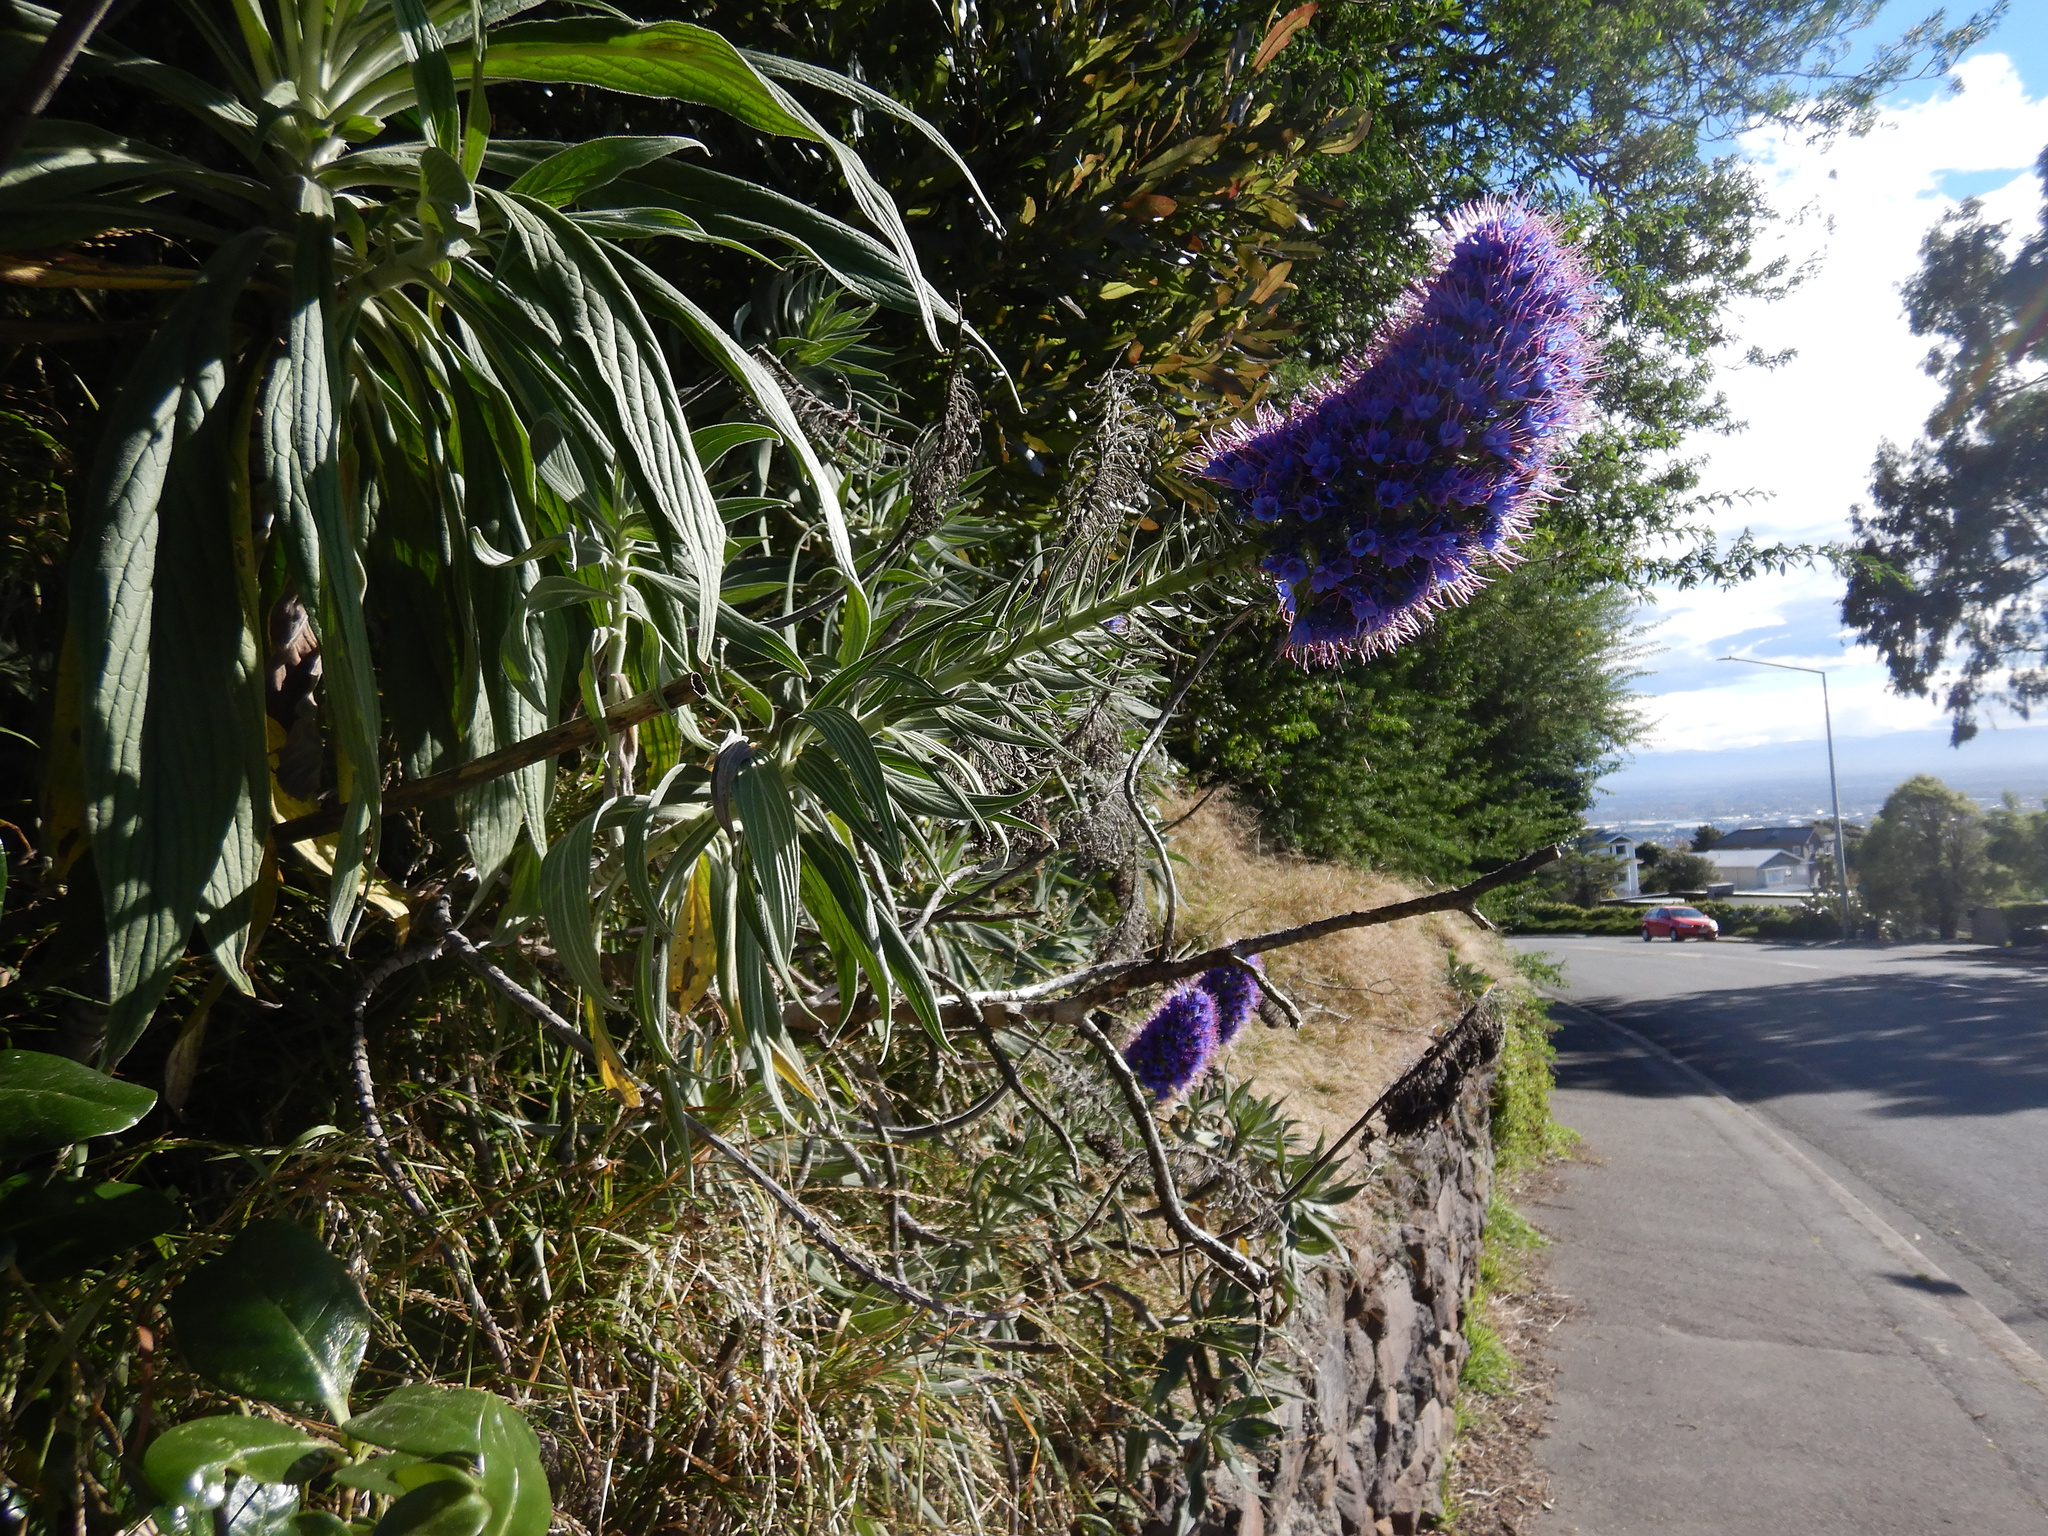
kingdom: Plantae
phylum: Tracheophyta
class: Magnoliopsida
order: Boraginales
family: Boraginaceae
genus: Echium
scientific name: Echium candicans
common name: Pride of madeira
